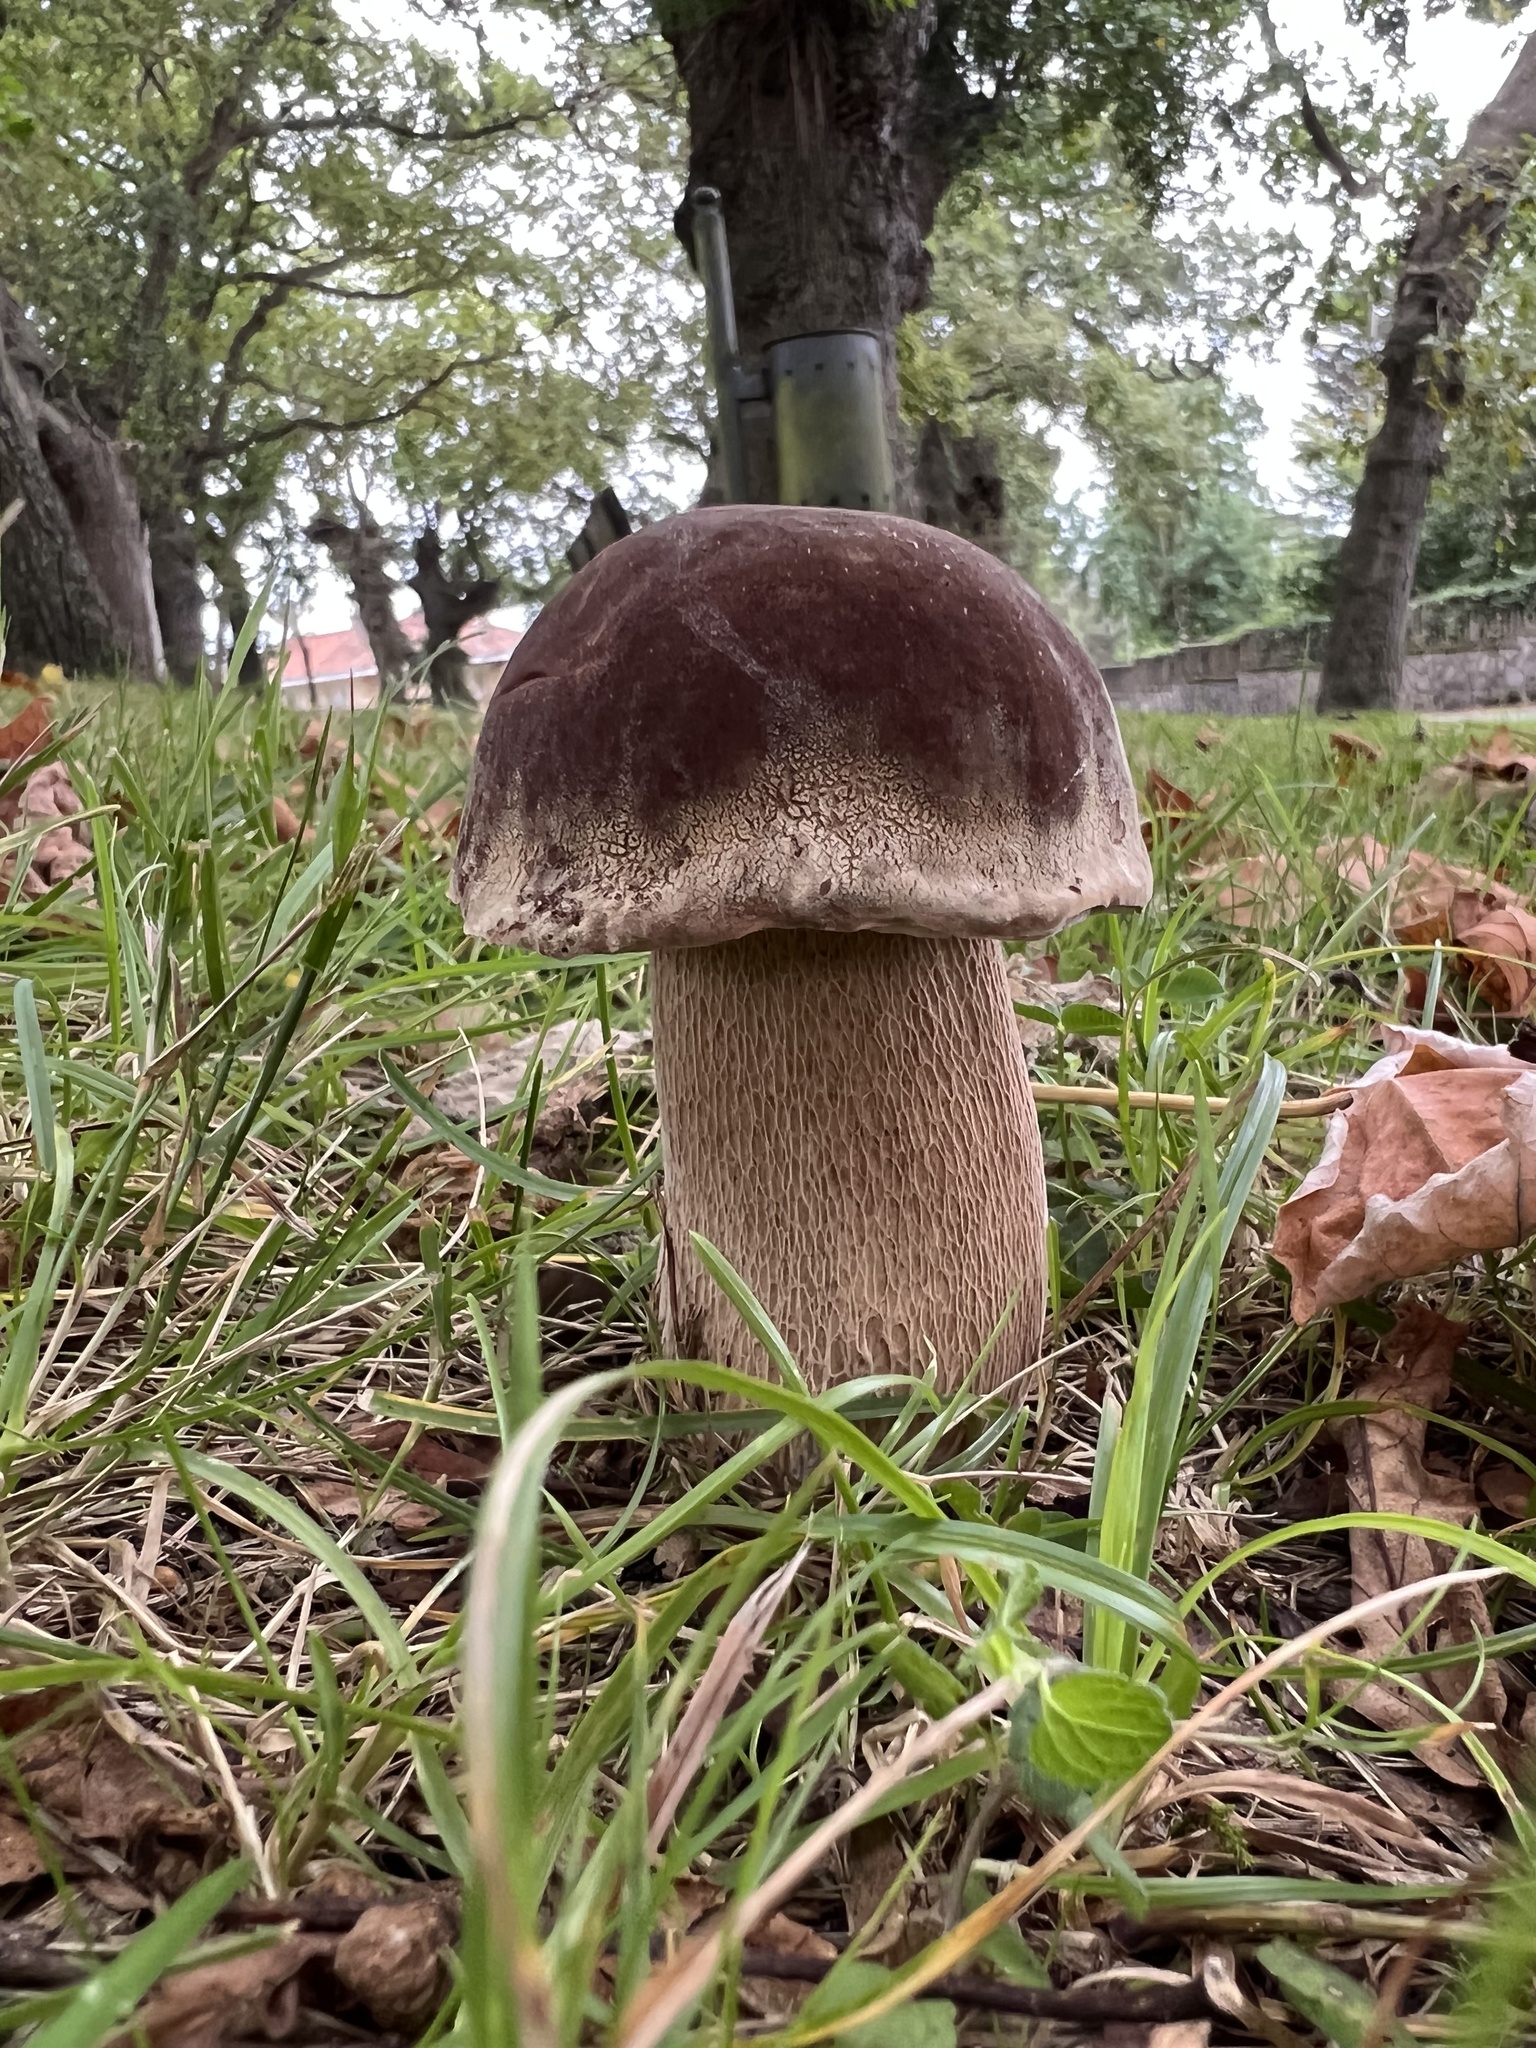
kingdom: Fungi
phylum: Basidiomycota
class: Agaricomycetes
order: Boletales
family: Boletaceae
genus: Boletus
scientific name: Boletus reticulatus
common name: Summer bolete
